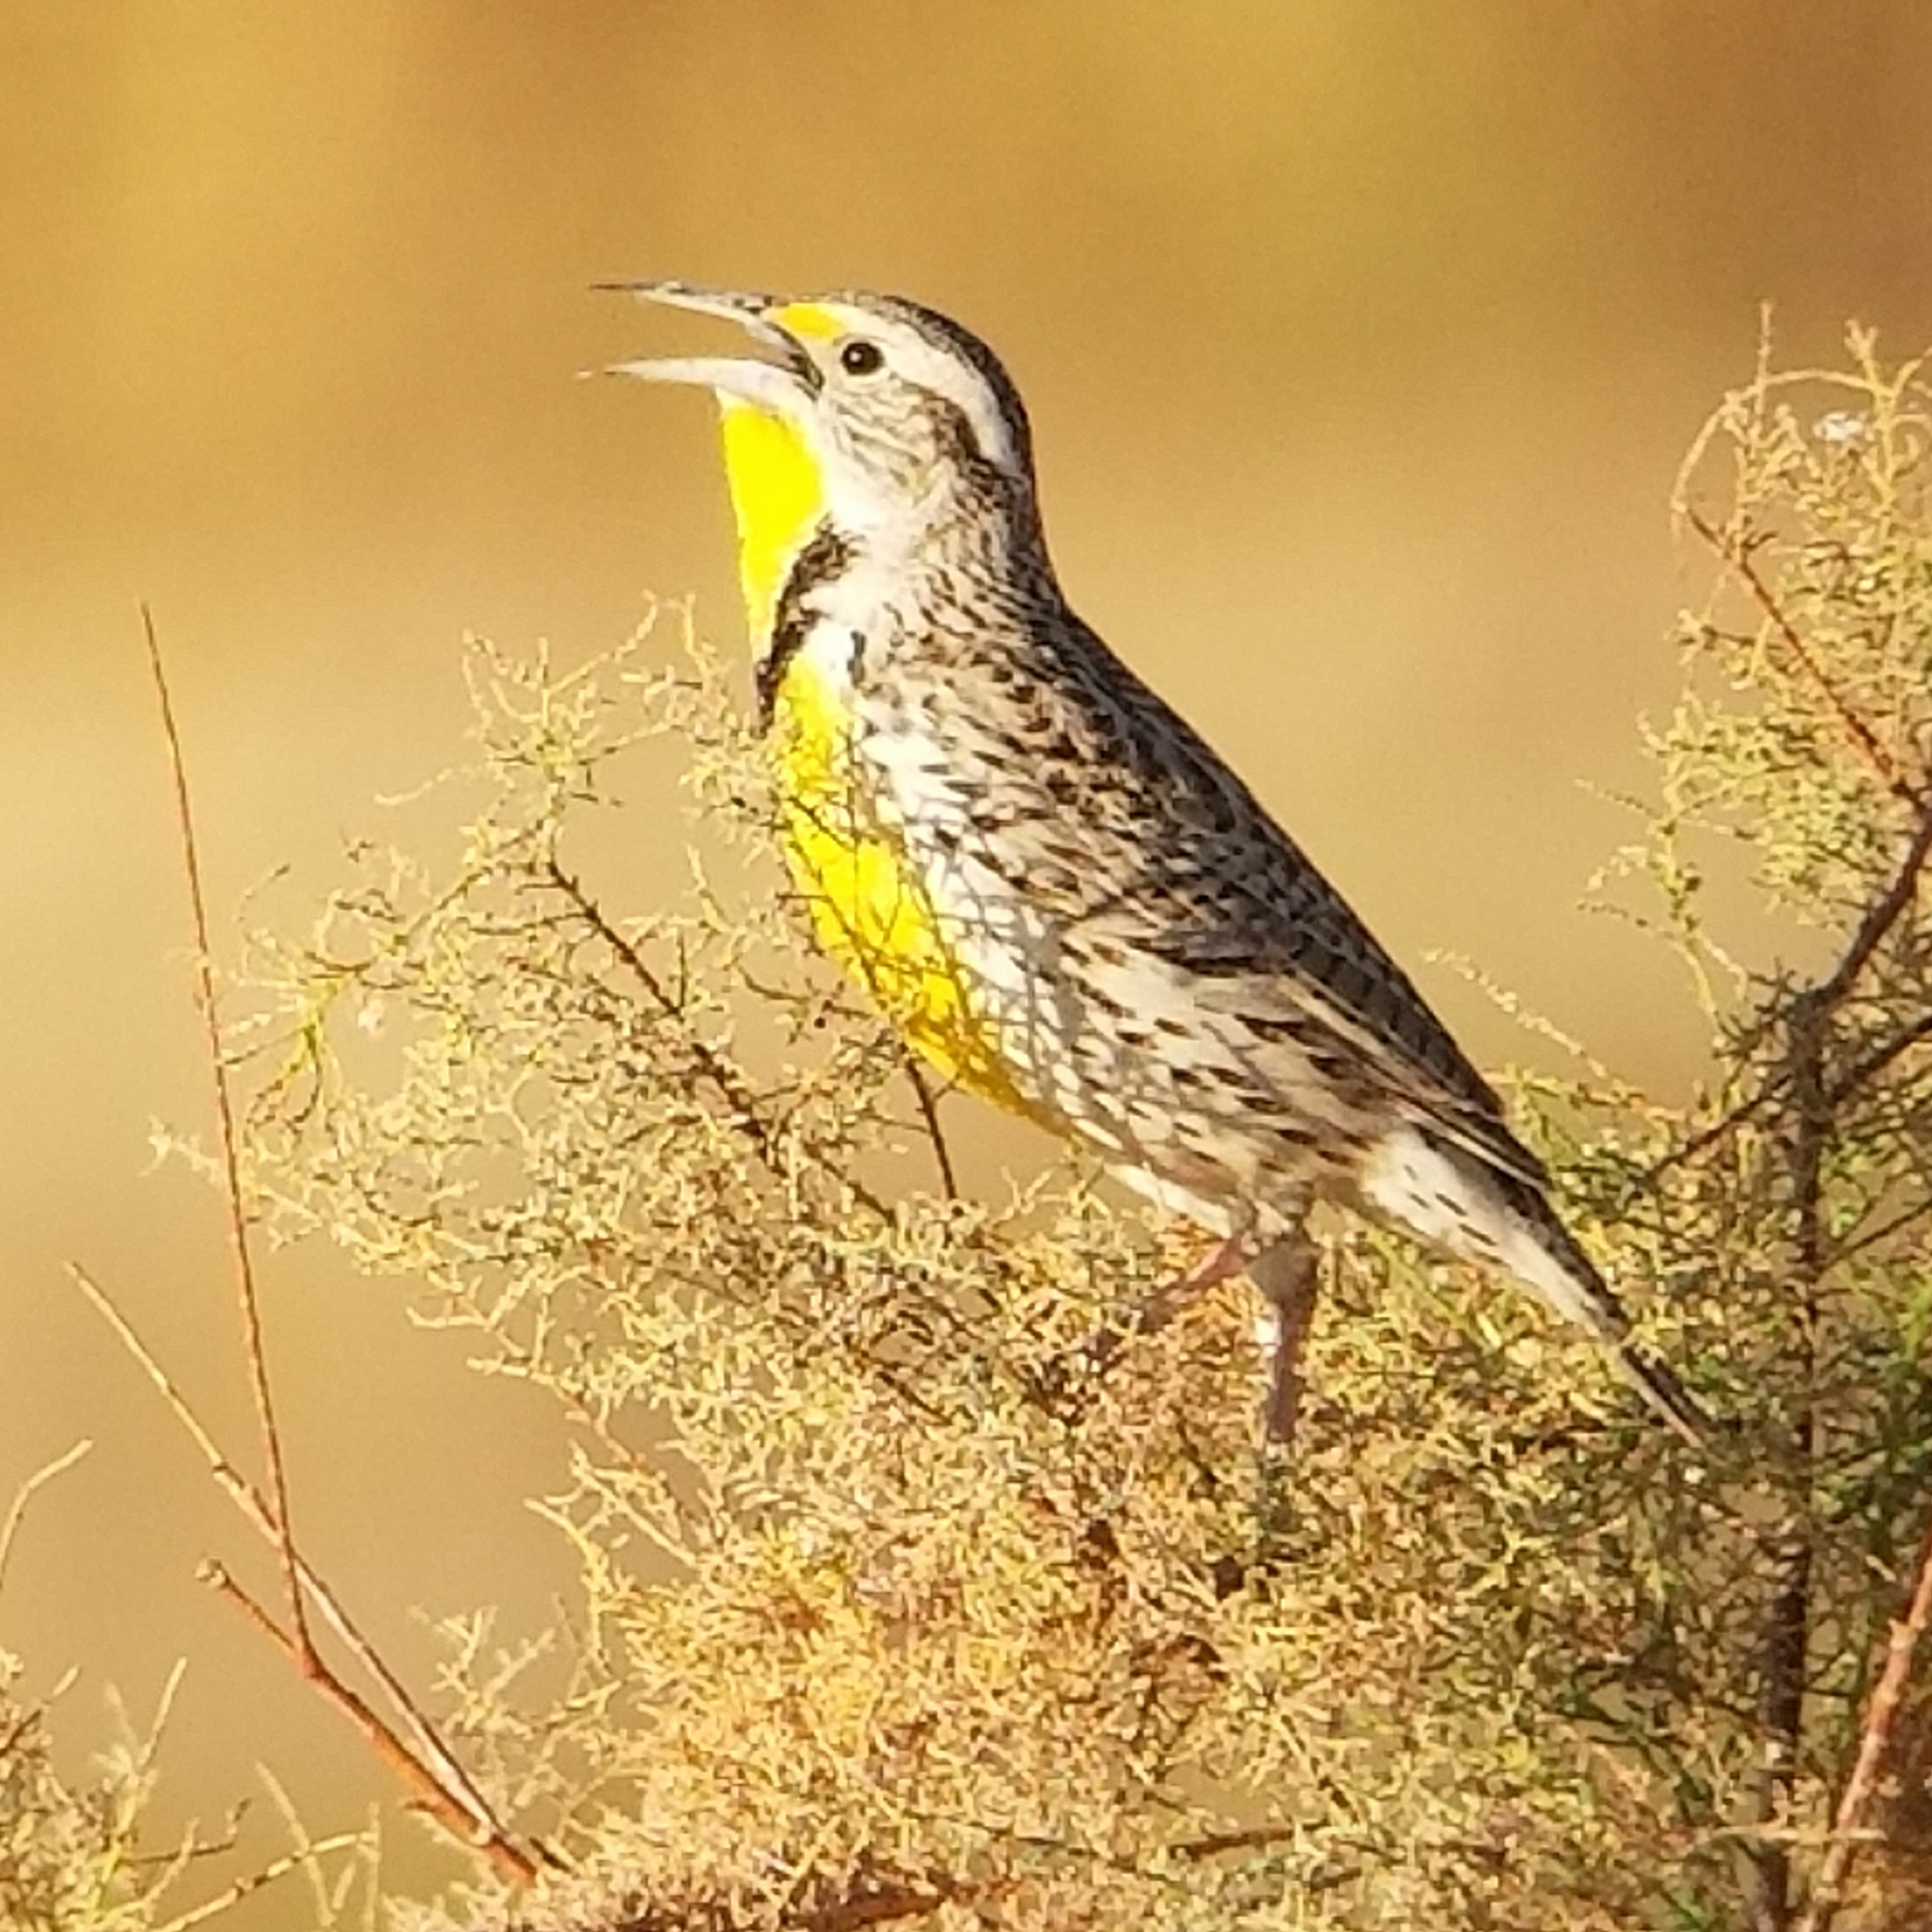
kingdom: Animalia
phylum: Chordata
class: Aves
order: Passeriformes
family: Icteridae
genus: Sturnella
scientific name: Sturnella neglecta
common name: Western meadowlark
